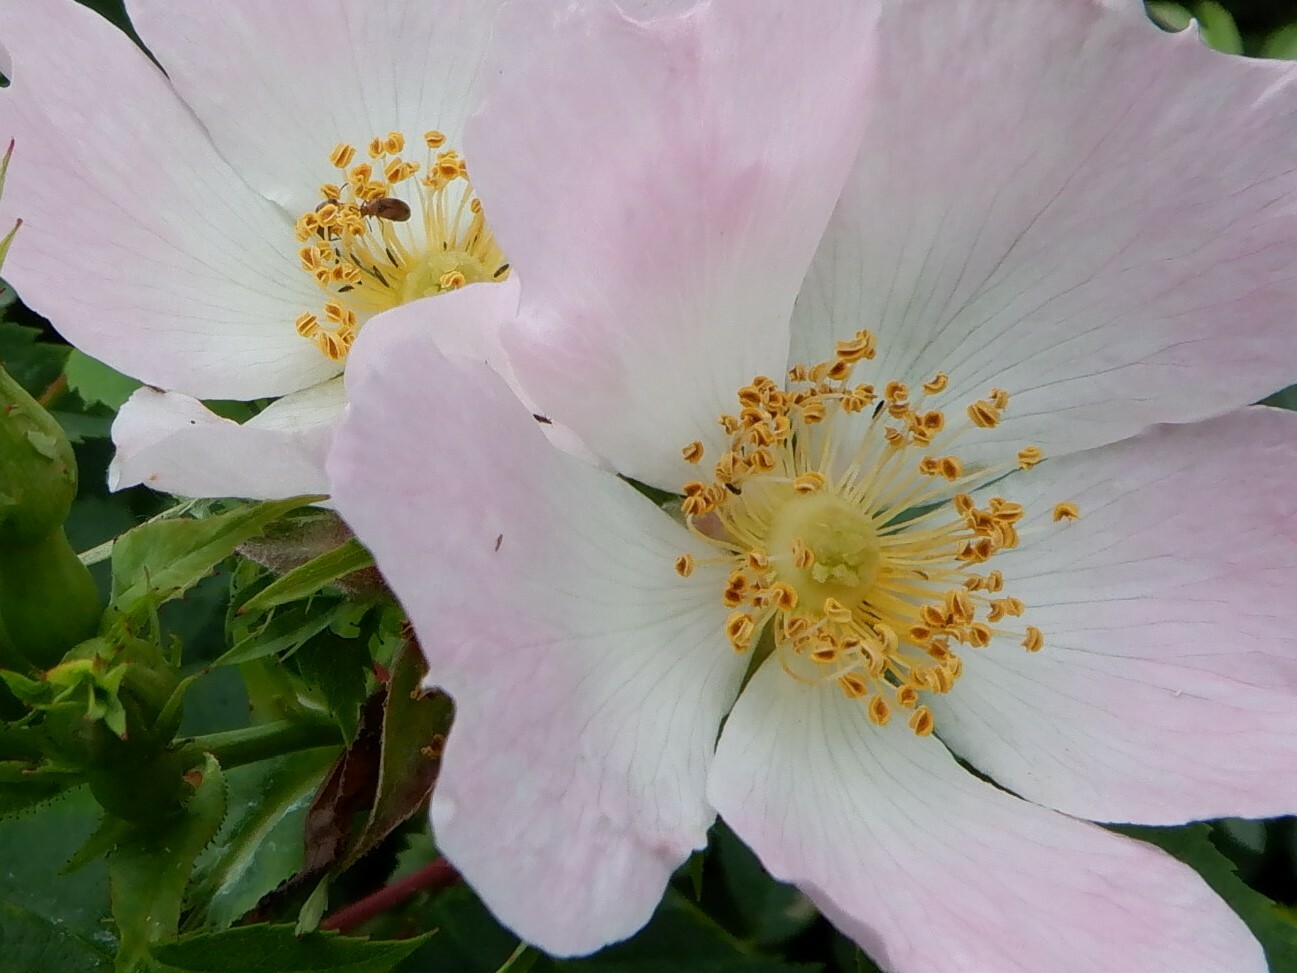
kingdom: Plantae
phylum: Tracheophyta
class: Magnoliopsida
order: Rosales
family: Rosaceae
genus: Rosa
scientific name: Rosa canina
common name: Dog rose
